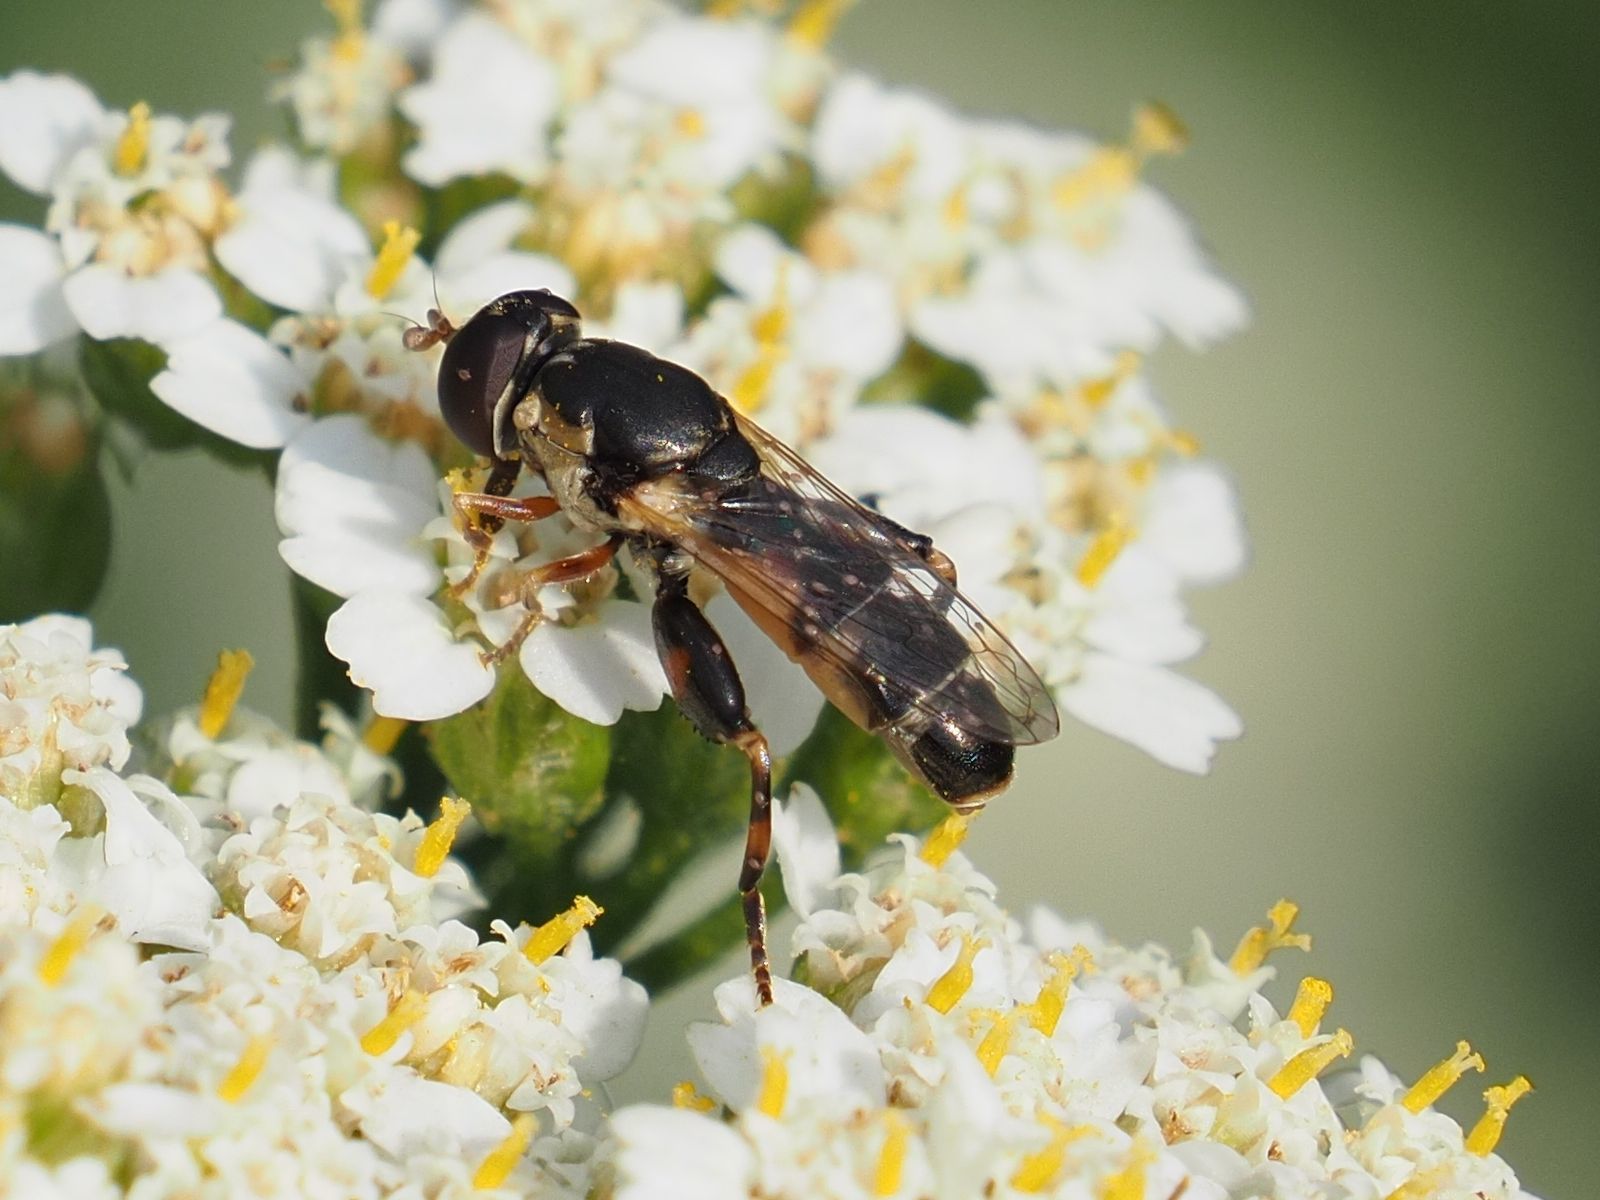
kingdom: Animalia
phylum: Arthropoda
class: Insecta
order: Diptera
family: Syrphidae
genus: Syritta
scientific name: Syritta pipiens
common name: Hover fly
